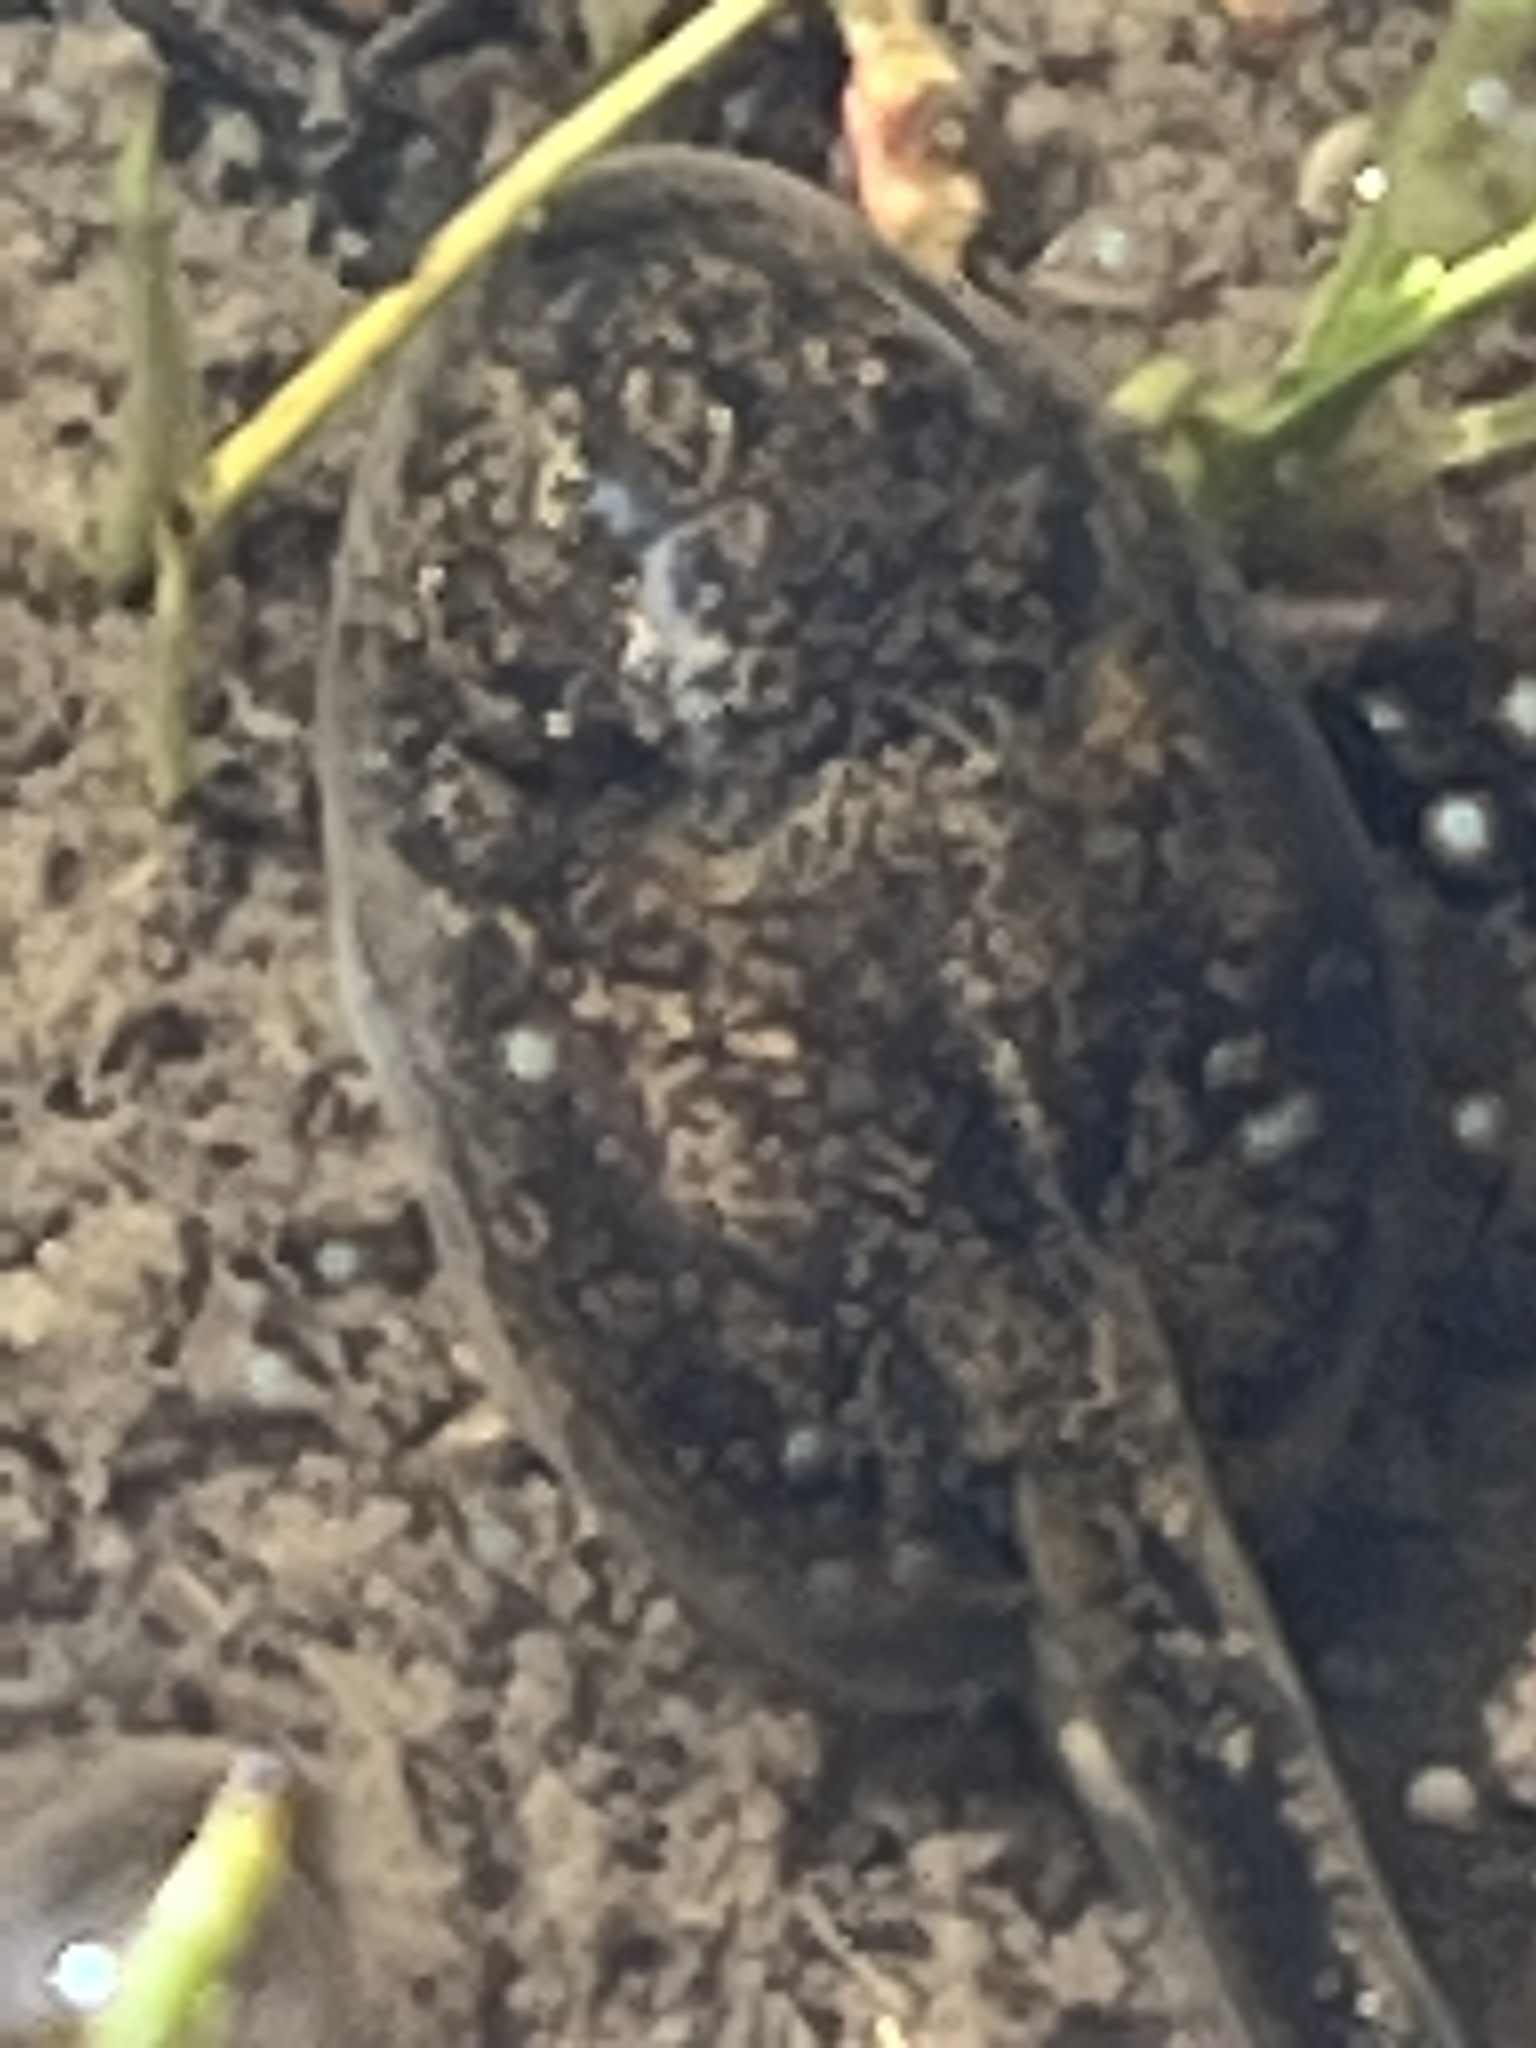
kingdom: Animalia
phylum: Chordata
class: Amphibia
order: Anura
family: Scaphiopodidae
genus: Spea
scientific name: Spea hammondii
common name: Western spadefoot toad
